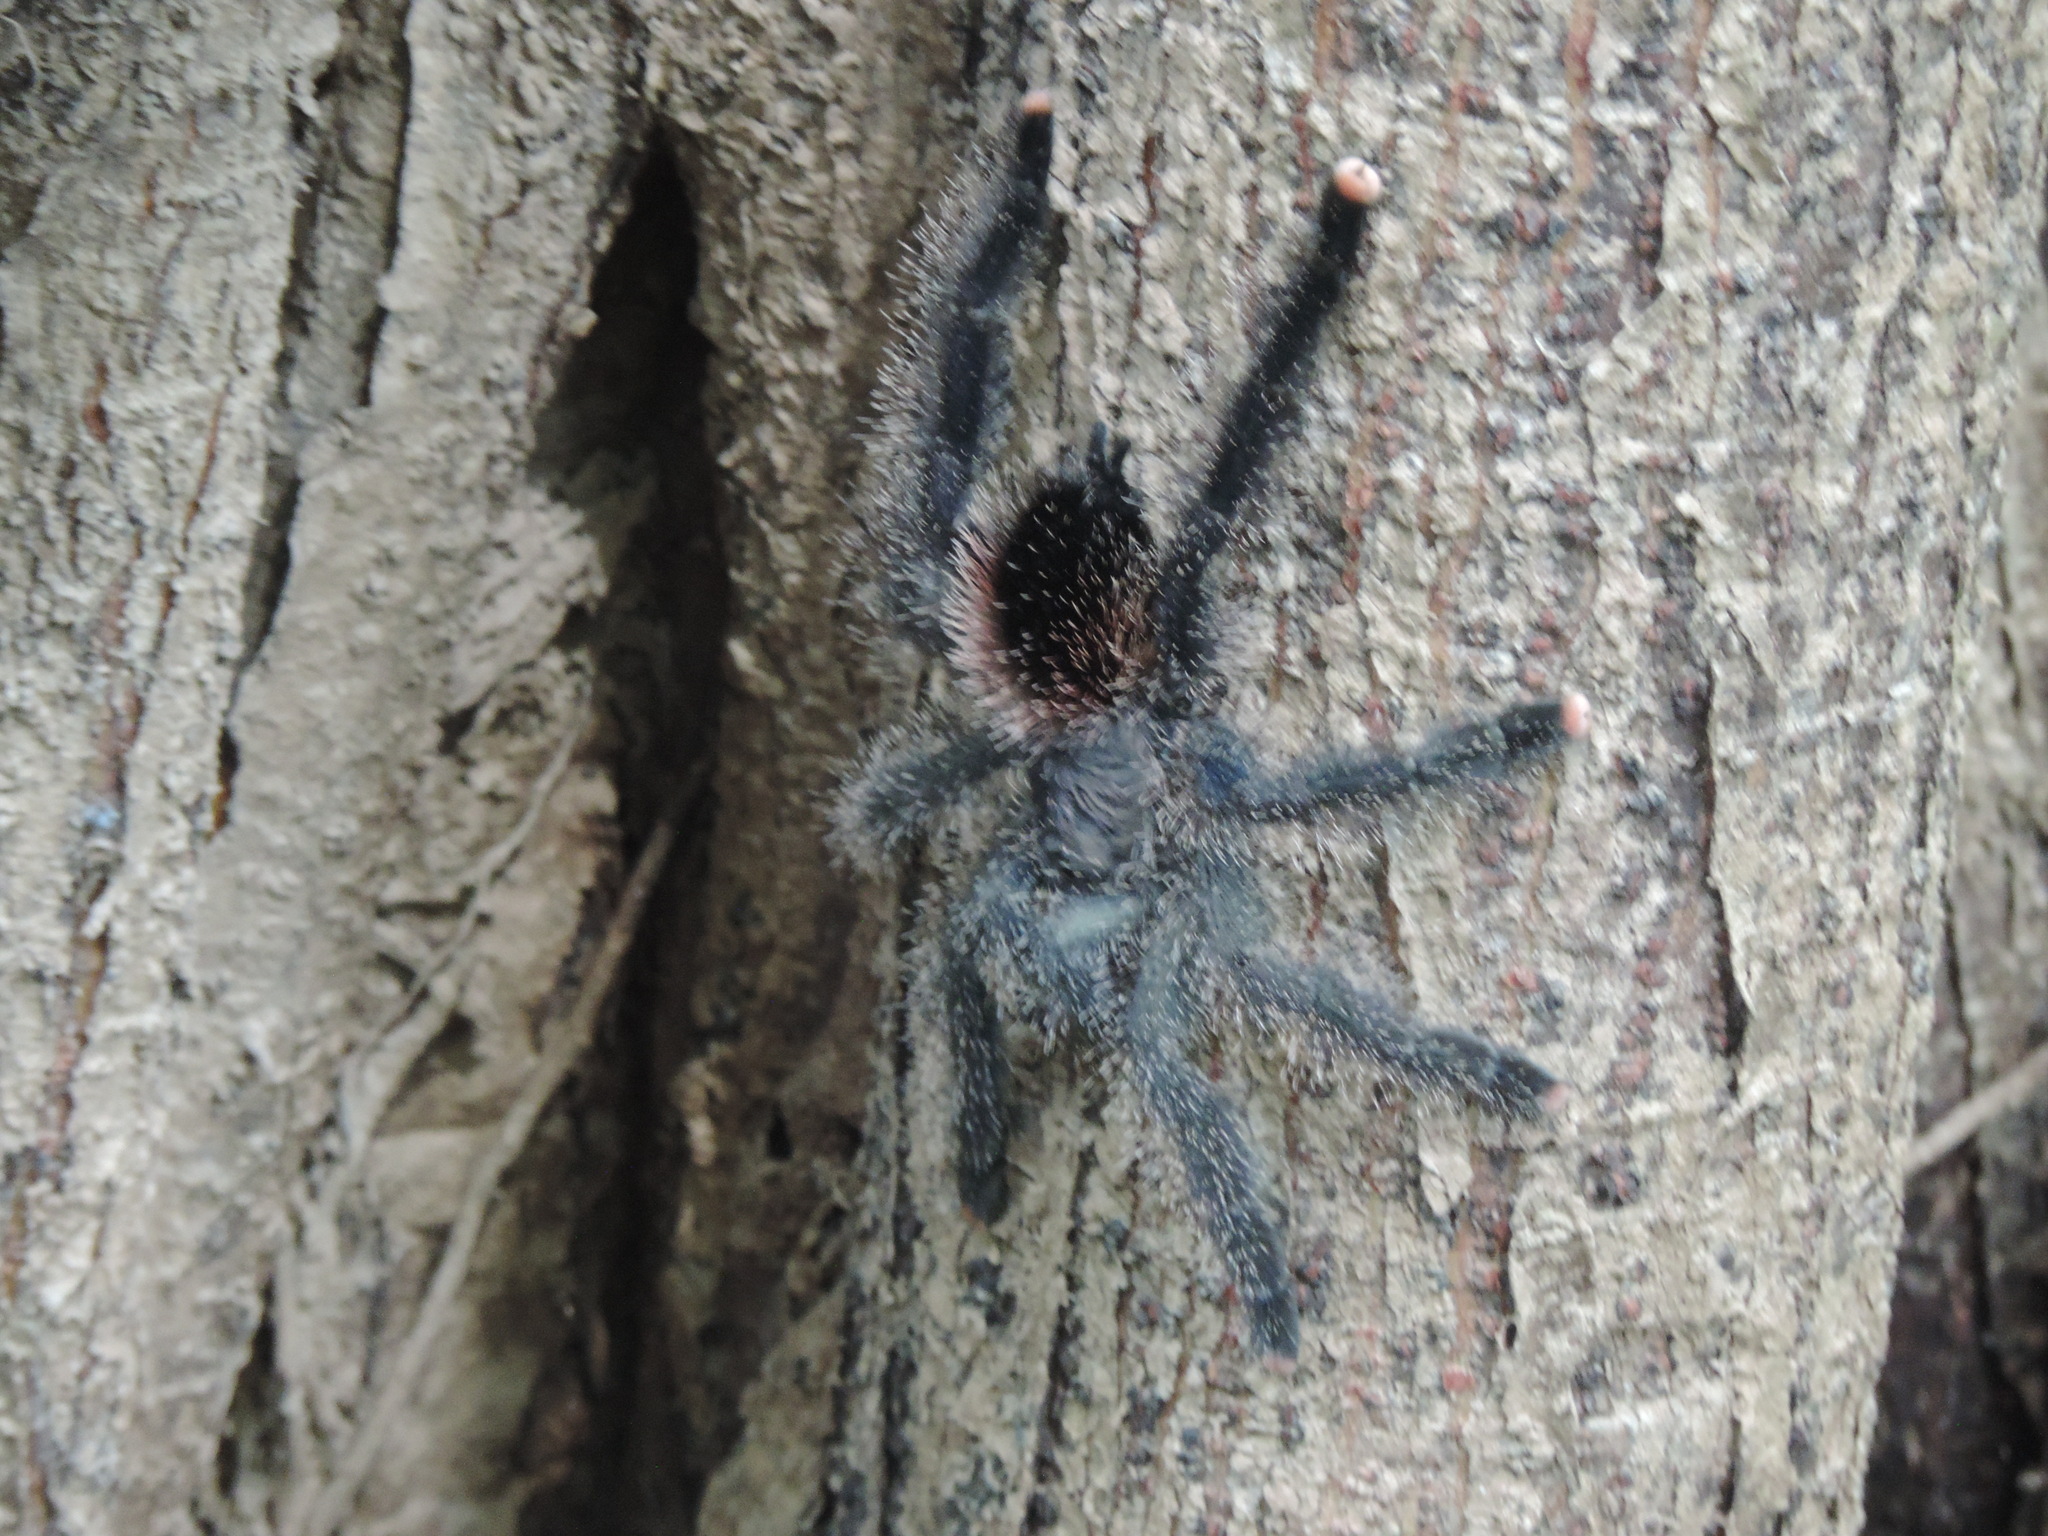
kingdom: Animalia
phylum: Arthropoda
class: Arachnida
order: Araneae
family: Theraphosidae
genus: Avicularia
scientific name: Avicularia juruensis
